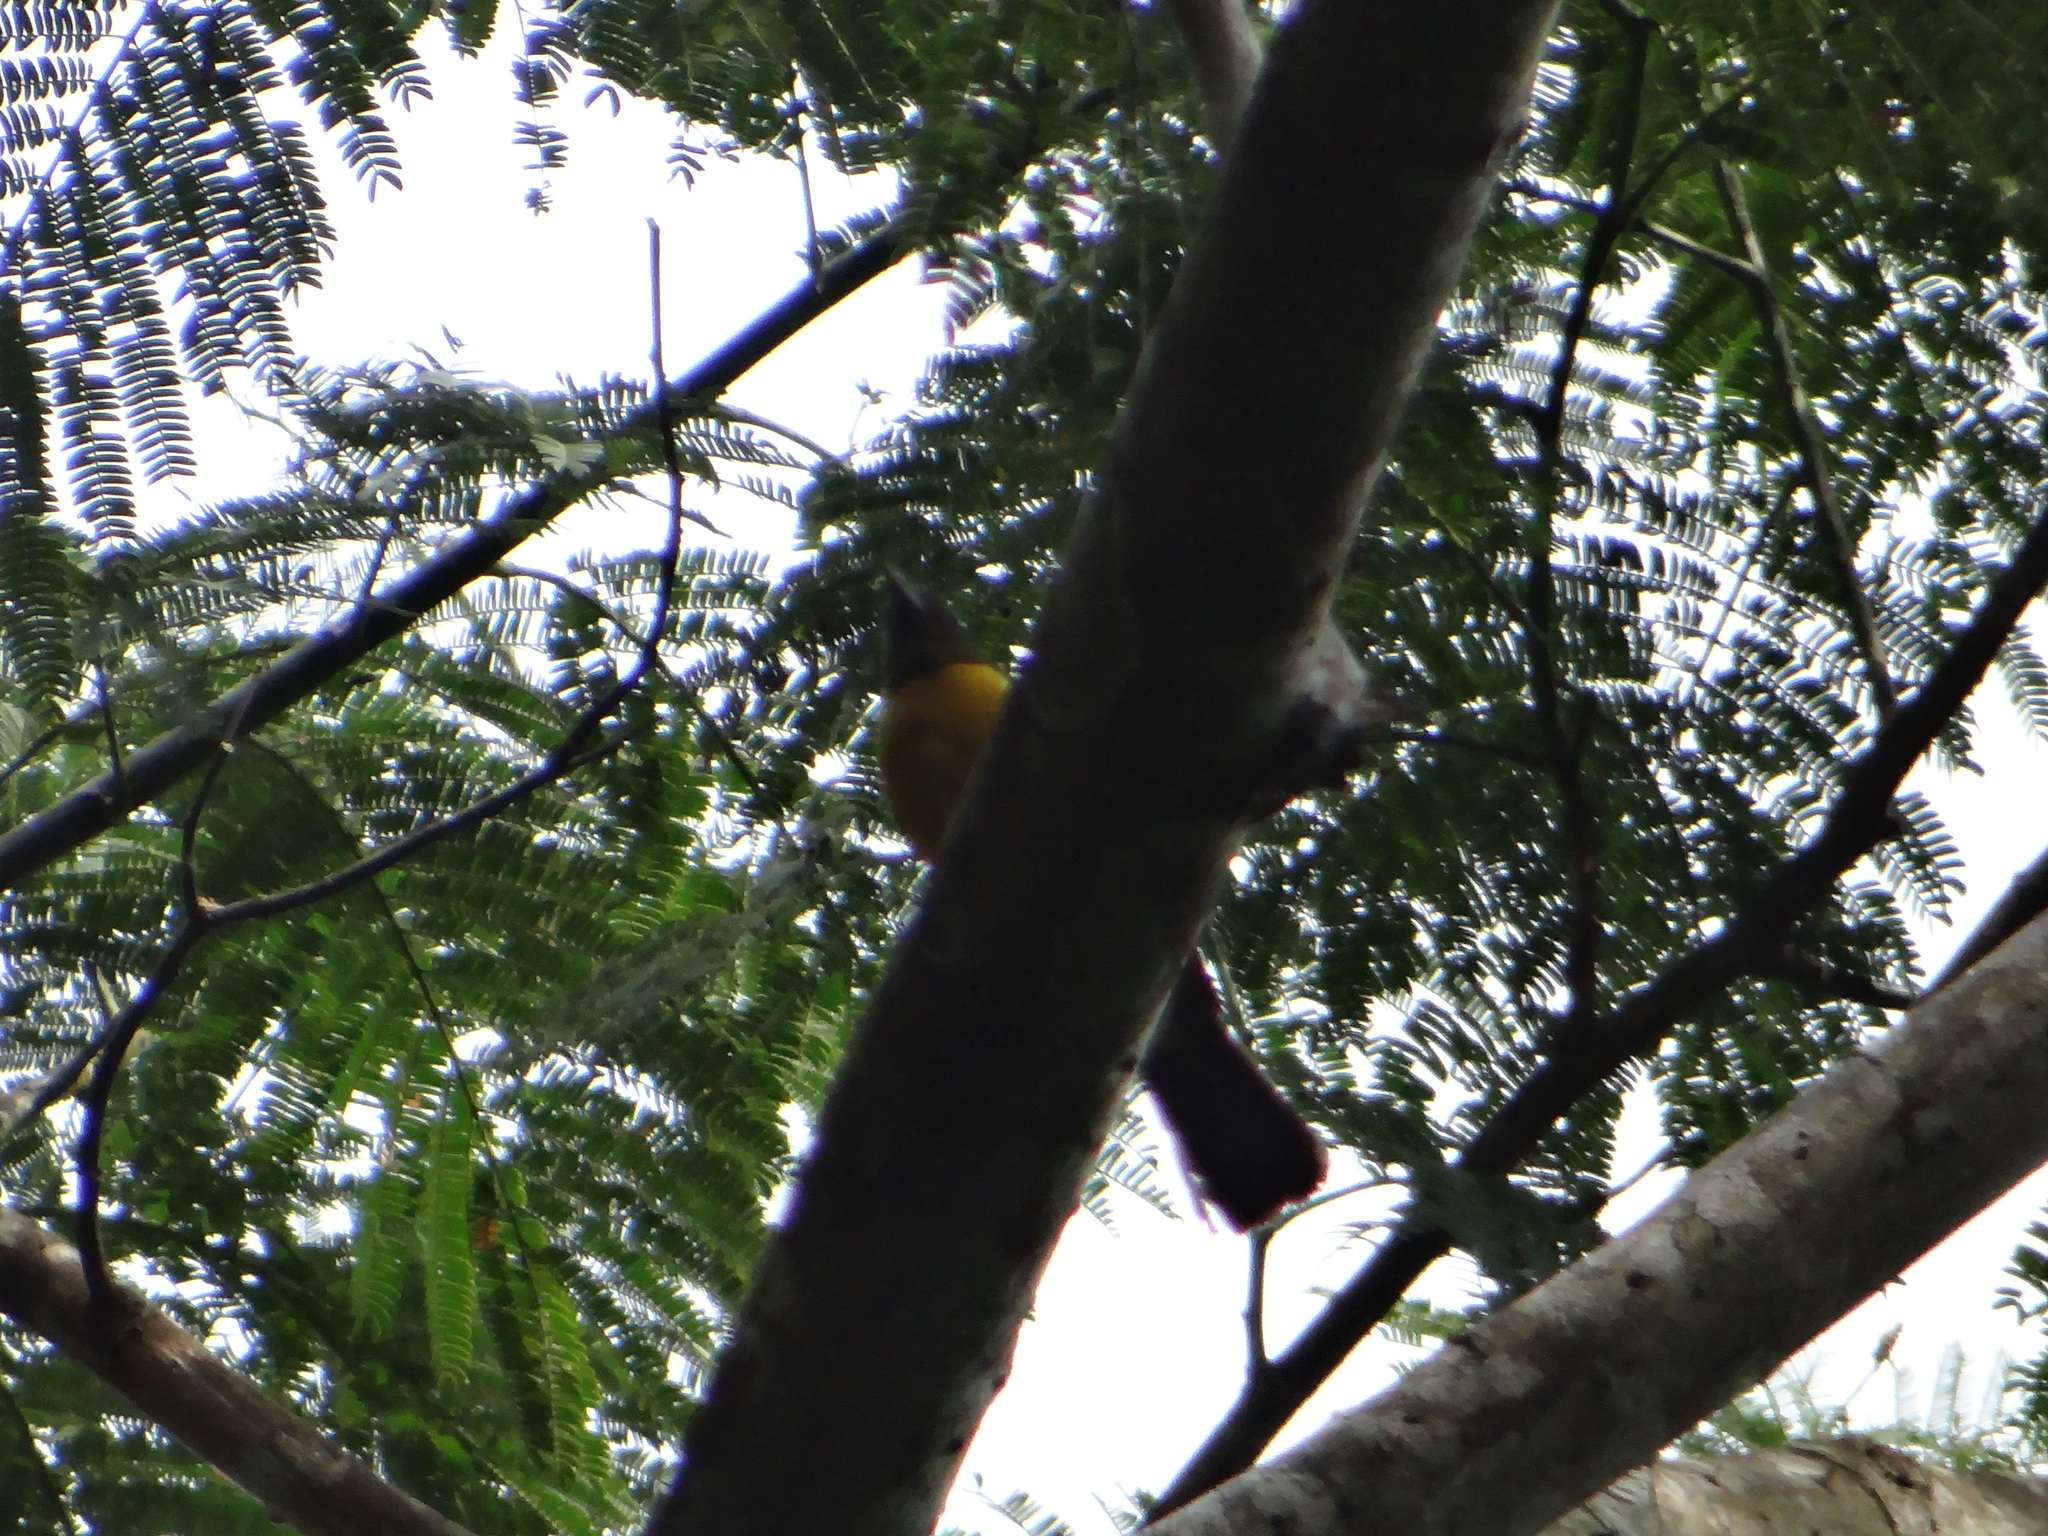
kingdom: Animalia
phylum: Chordata
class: Aves
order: Passeriformes
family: Thraupidae
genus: Lanio
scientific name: Lanio versicolor
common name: White-winged shrike-tanager
